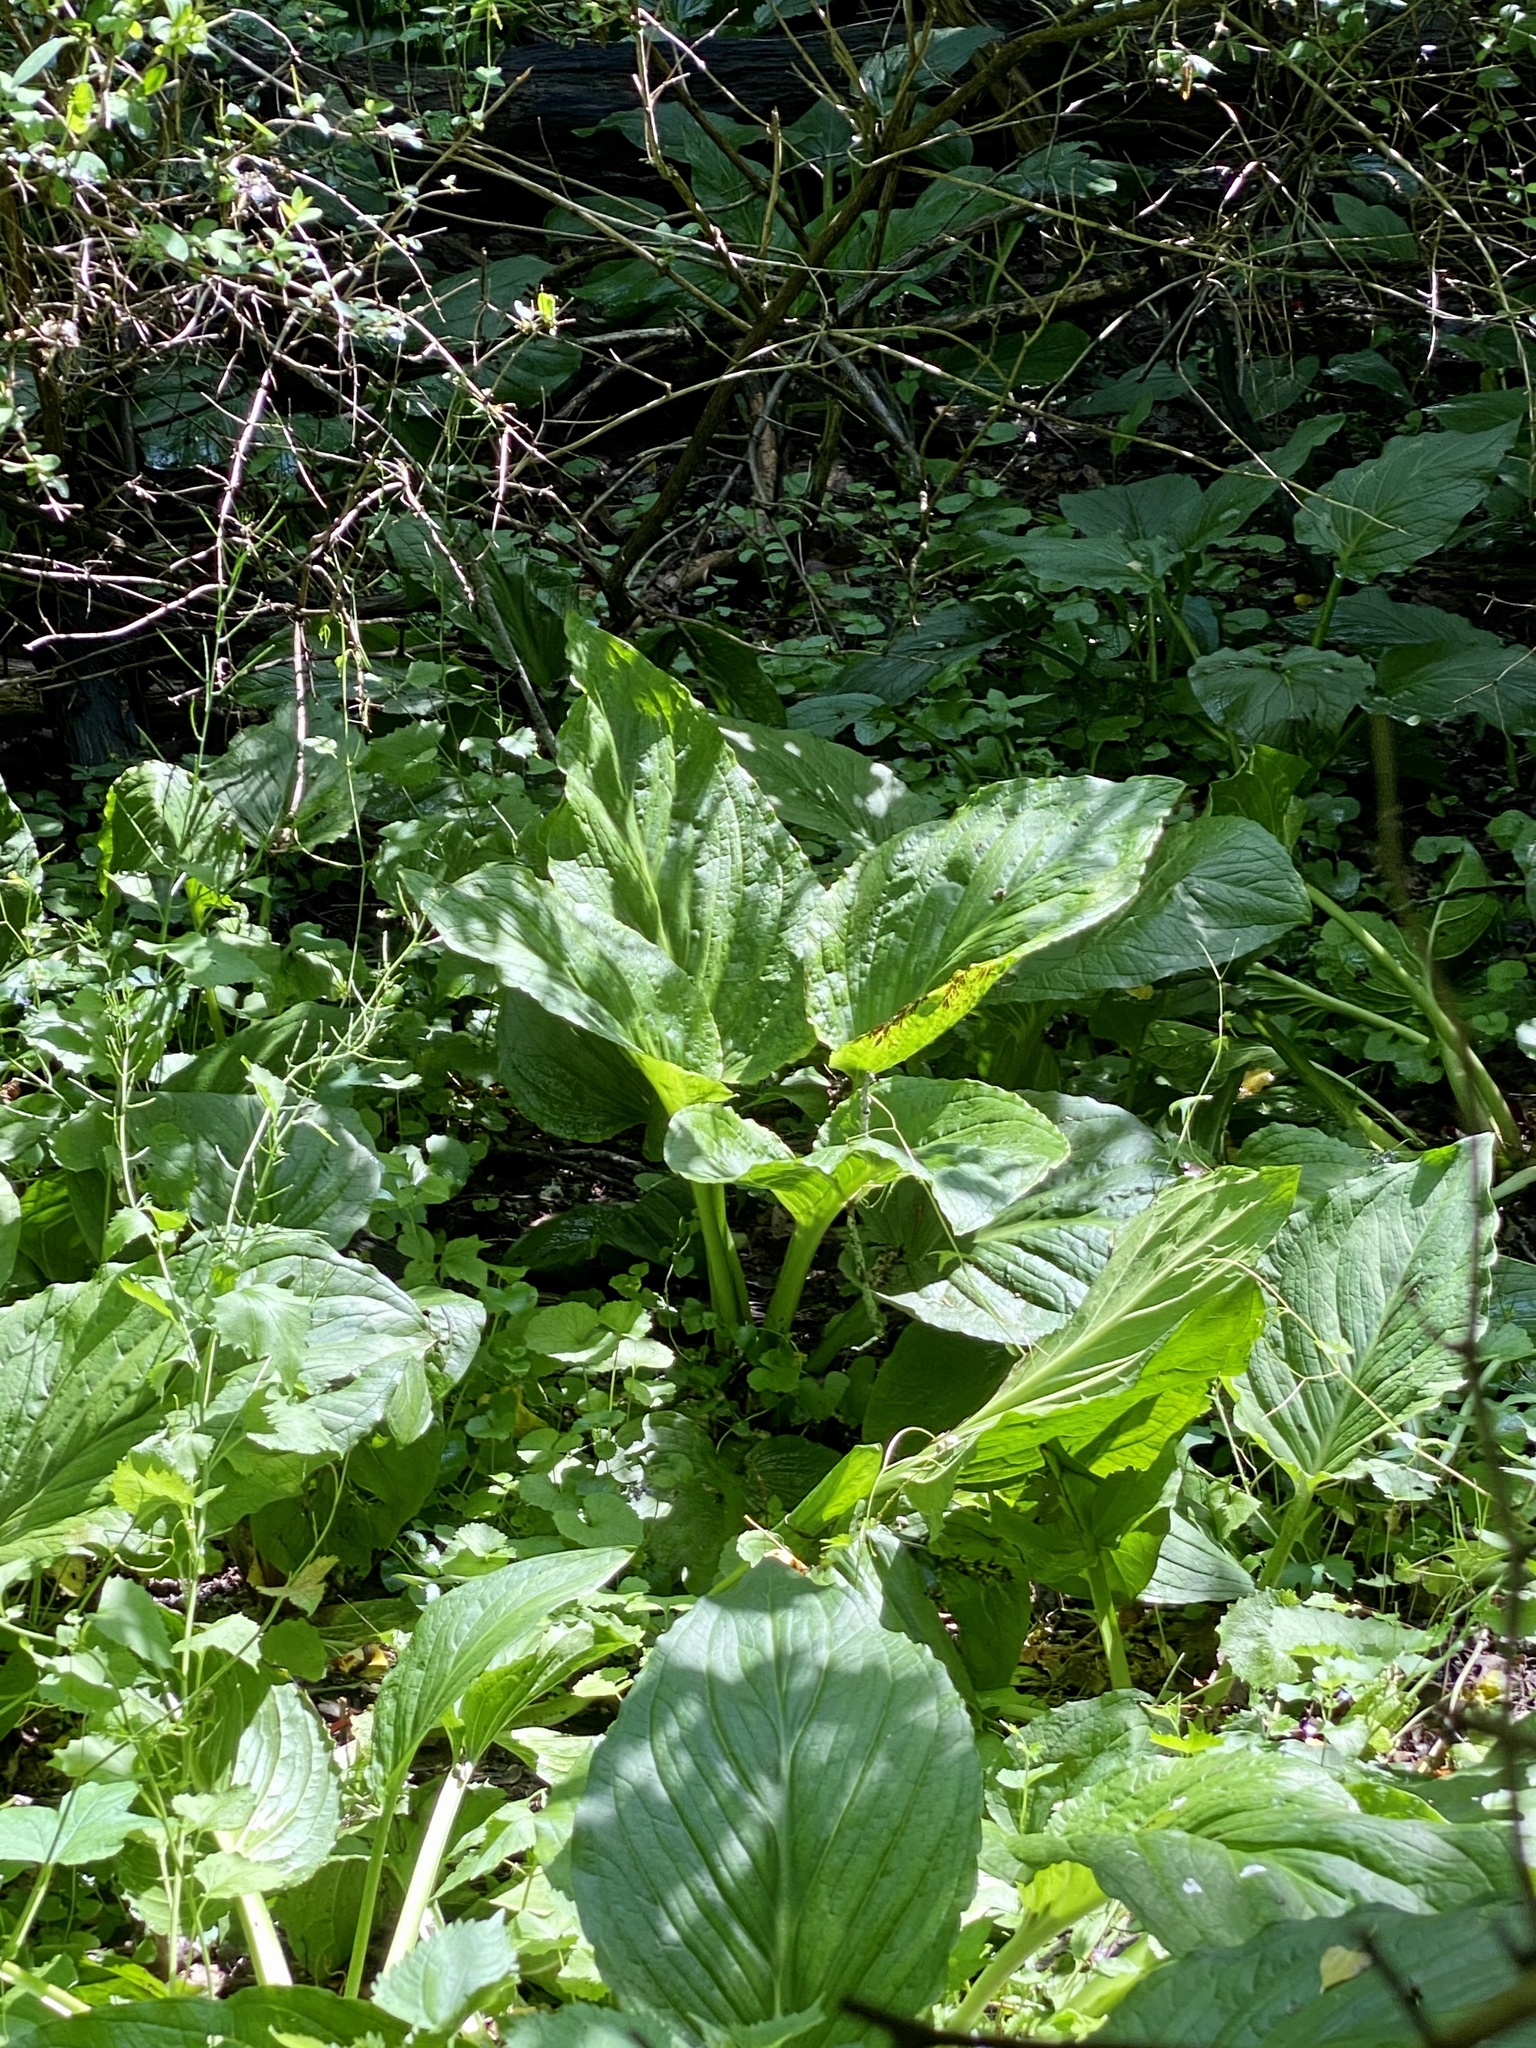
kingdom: Plantae
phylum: Tracheophyta
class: Liliopsida
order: Alismatales
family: Araceae
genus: Symplocarpus
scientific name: Symplocarpus foetidus
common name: Eastern skunk cabbage
